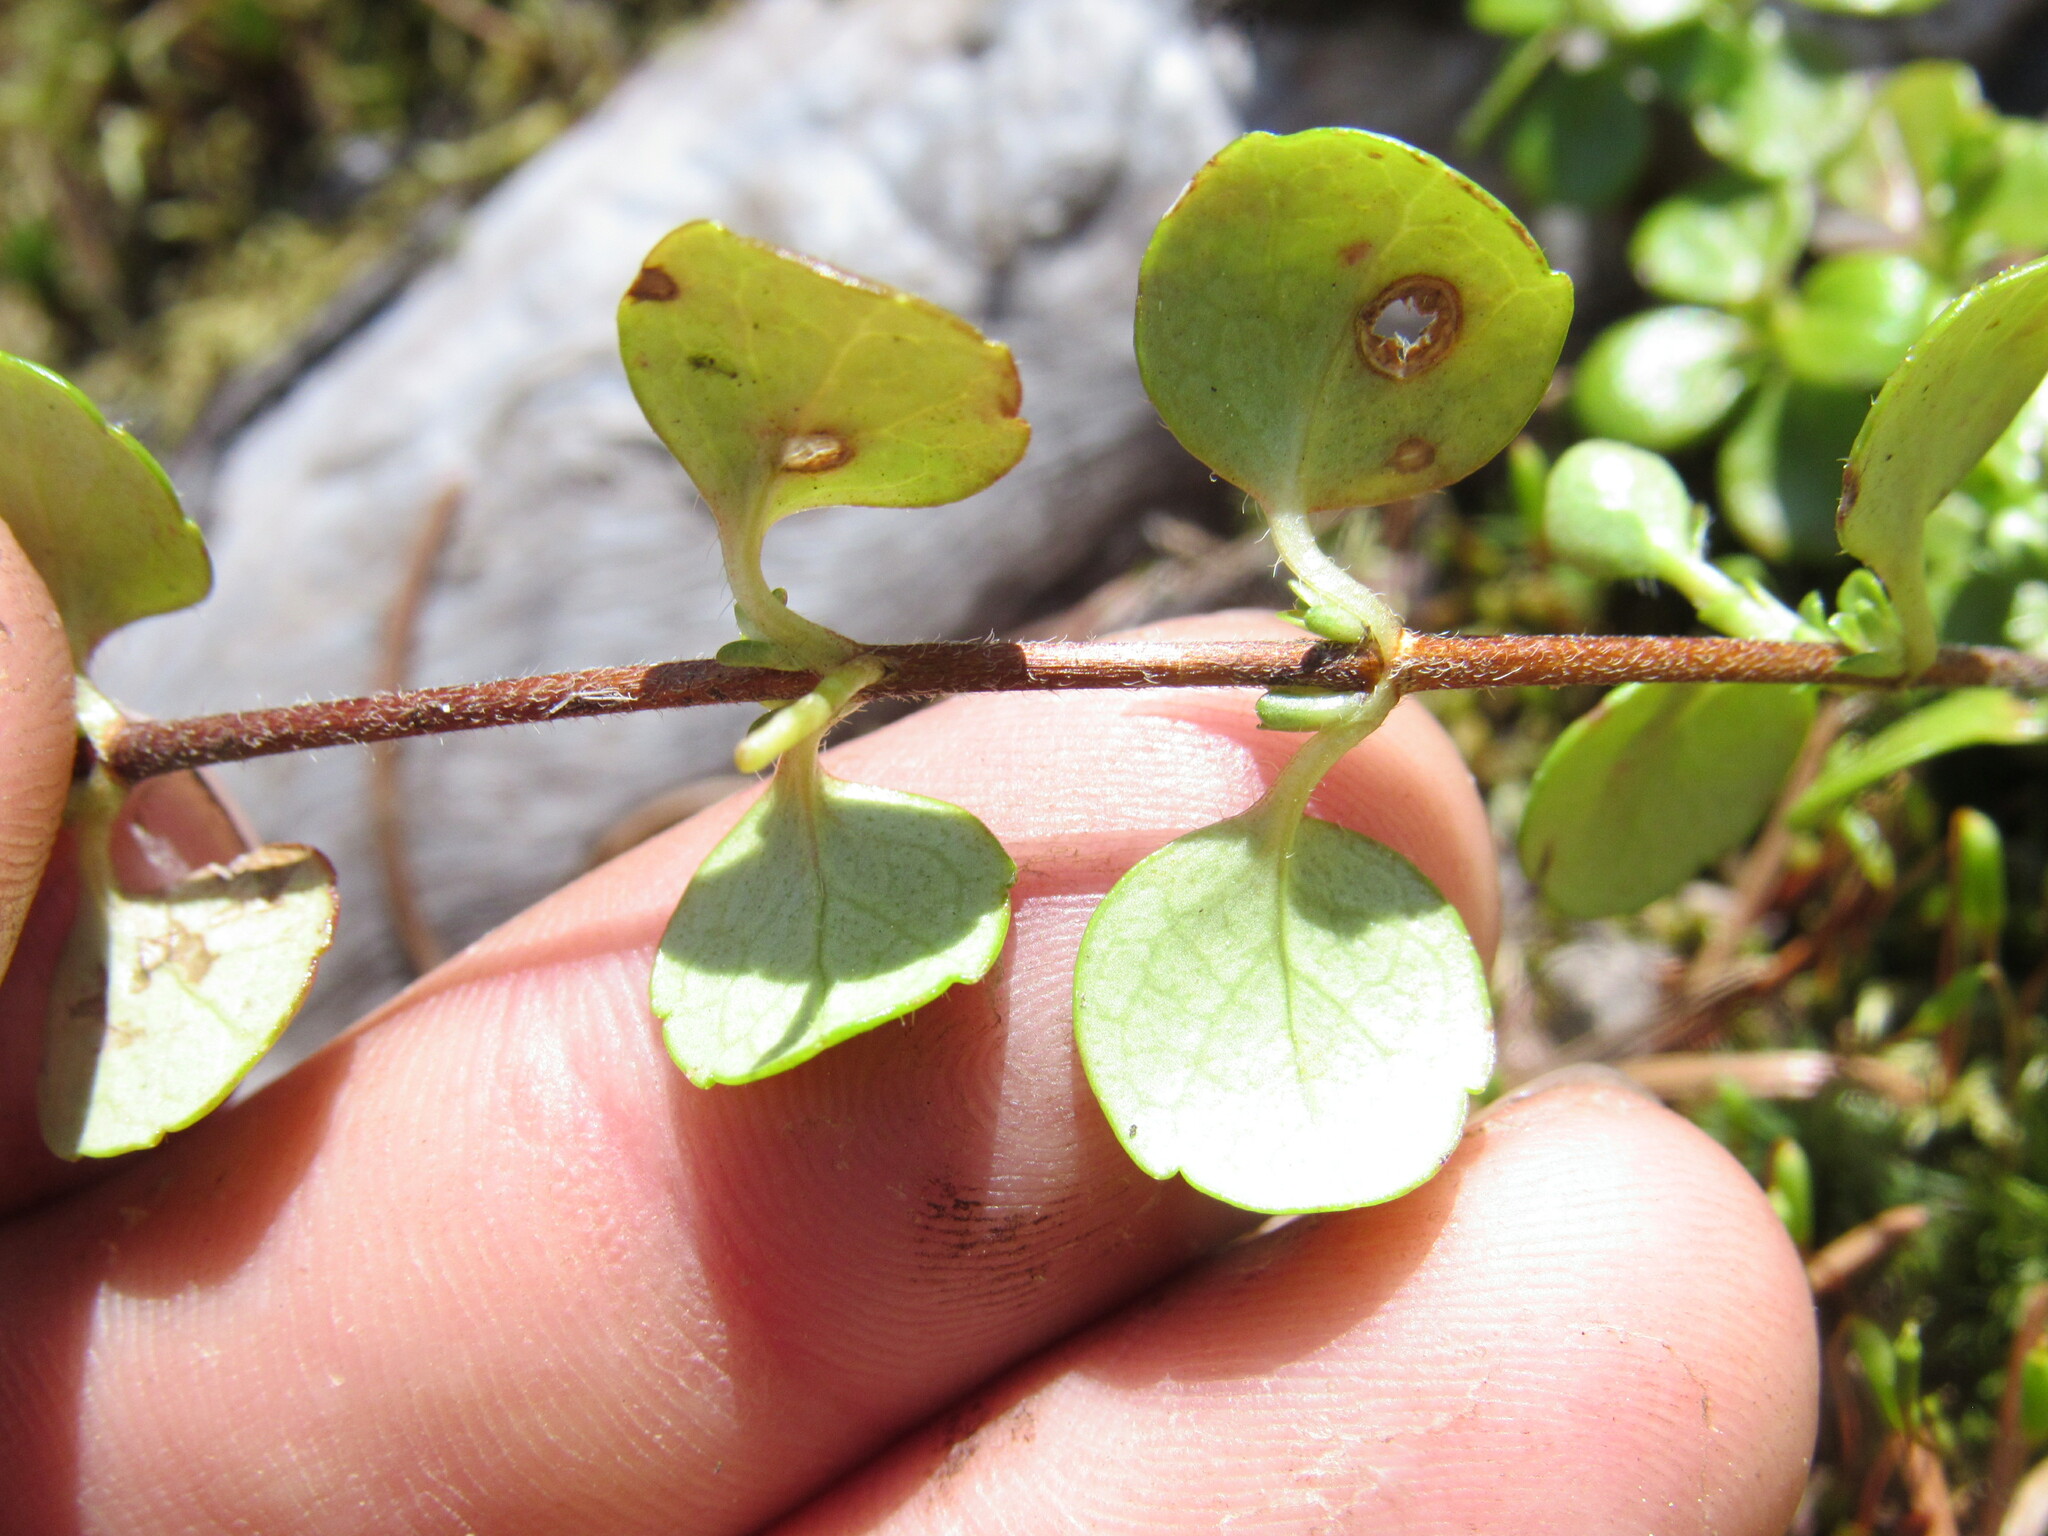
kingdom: Plantae
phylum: Tracheophyta
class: Magnoliopsida
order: Dipsacales
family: Caprifoliaceae
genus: Linnaea
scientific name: Linnaea borealis
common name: Twinflower
